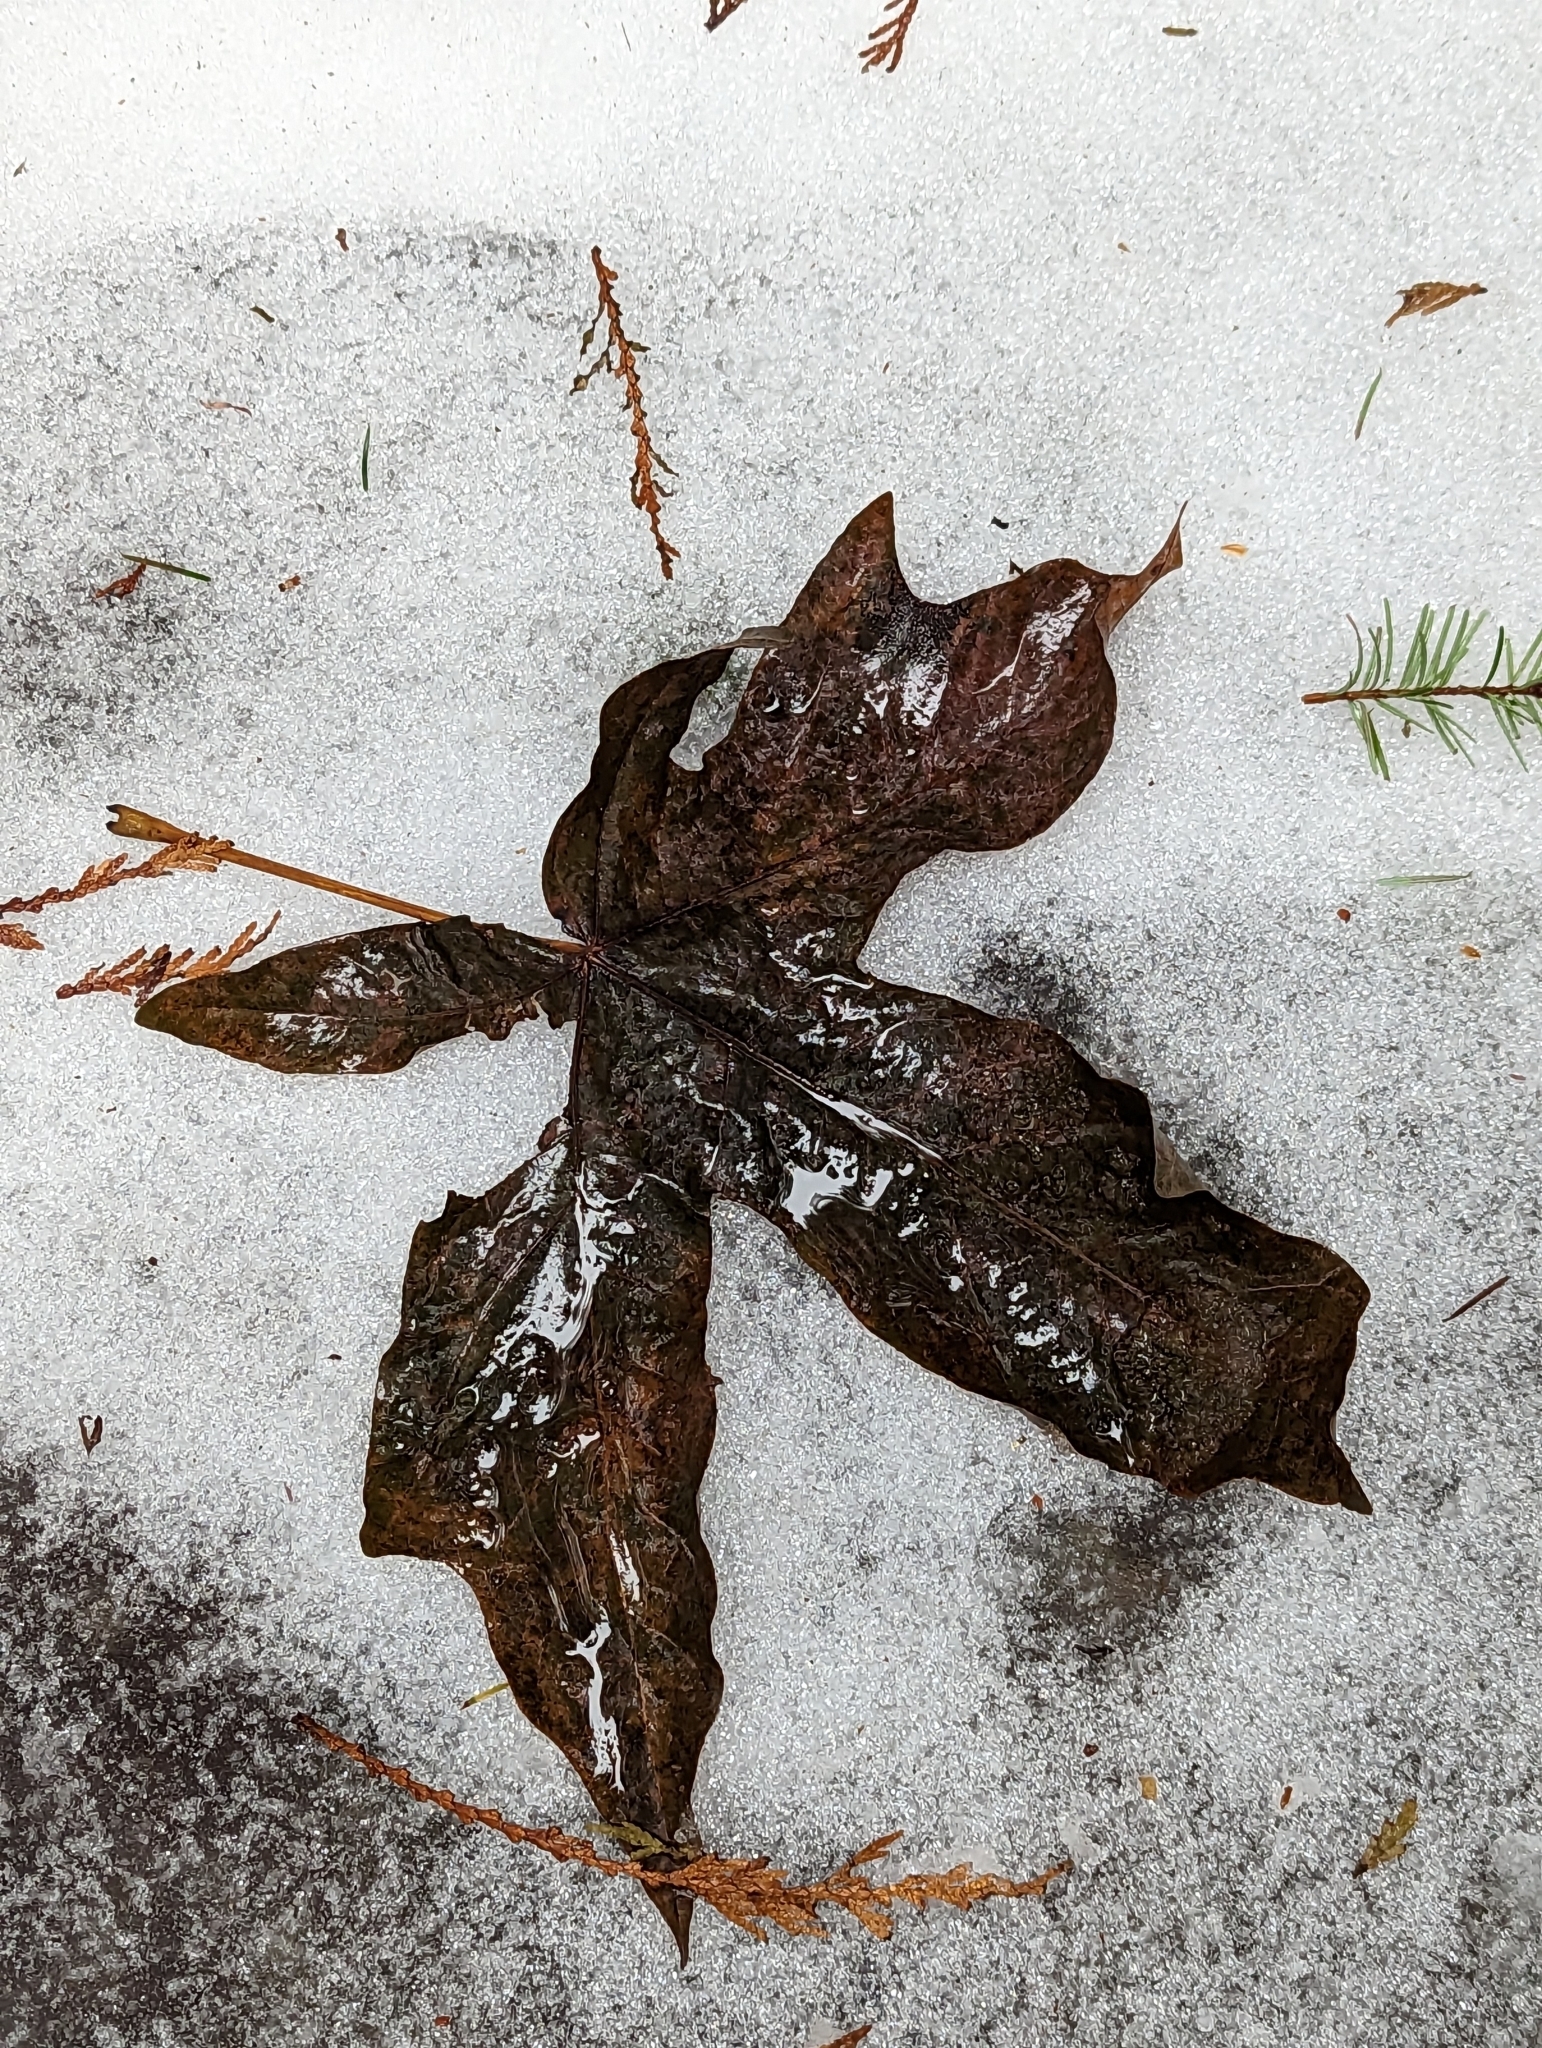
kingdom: Plantae
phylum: Tracheophyta
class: Magnoliopsida
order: Sapindales
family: Sapindaceae
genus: Acer
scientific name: Acer macrophyllum
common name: Oregon maple
